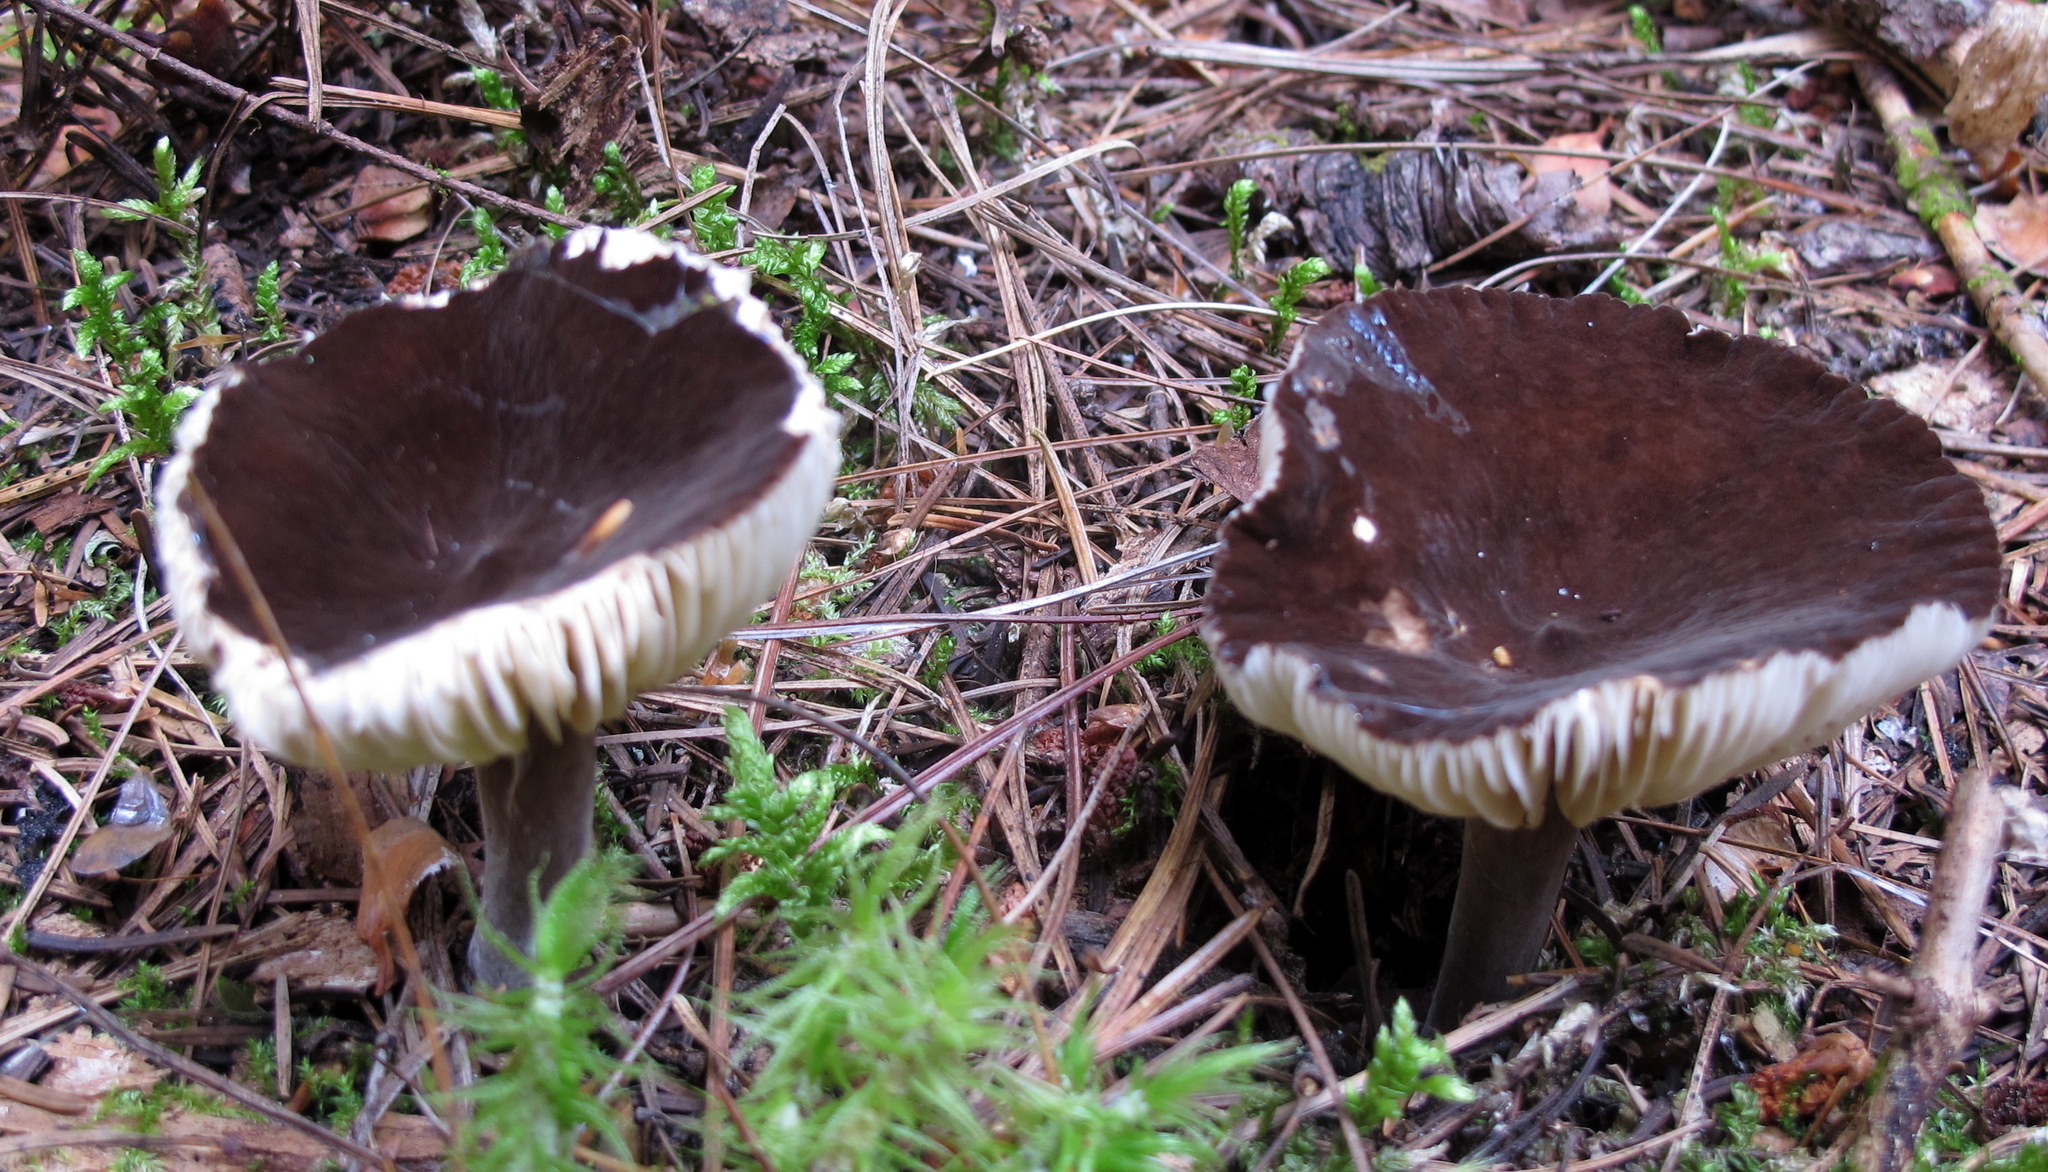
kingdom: Fungi
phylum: Basidiomycota
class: Agaricomycetes
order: Russulales
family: Russulaceae
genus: Lactarius
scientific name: Lactarius lignyotus
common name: Velvet milkcap
